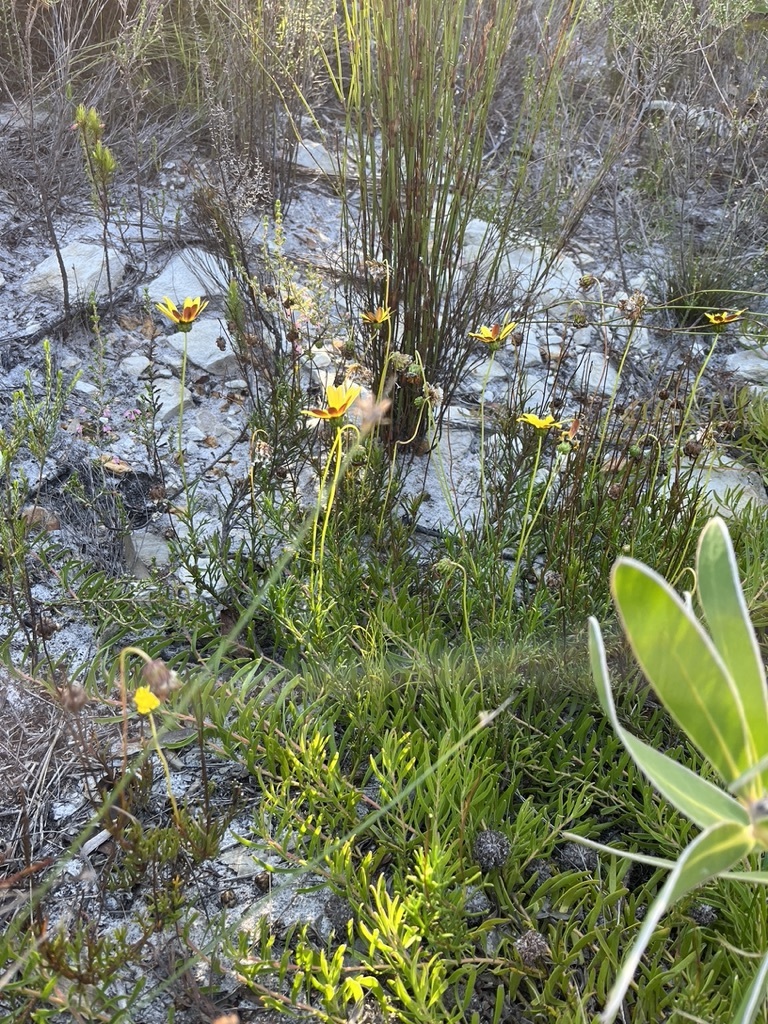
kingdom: Plantae
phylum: Tracheophyta
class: Magnoliopsida
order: Asterales
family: Asteraceae
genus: Ursinia
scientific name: Ursinia dentata
